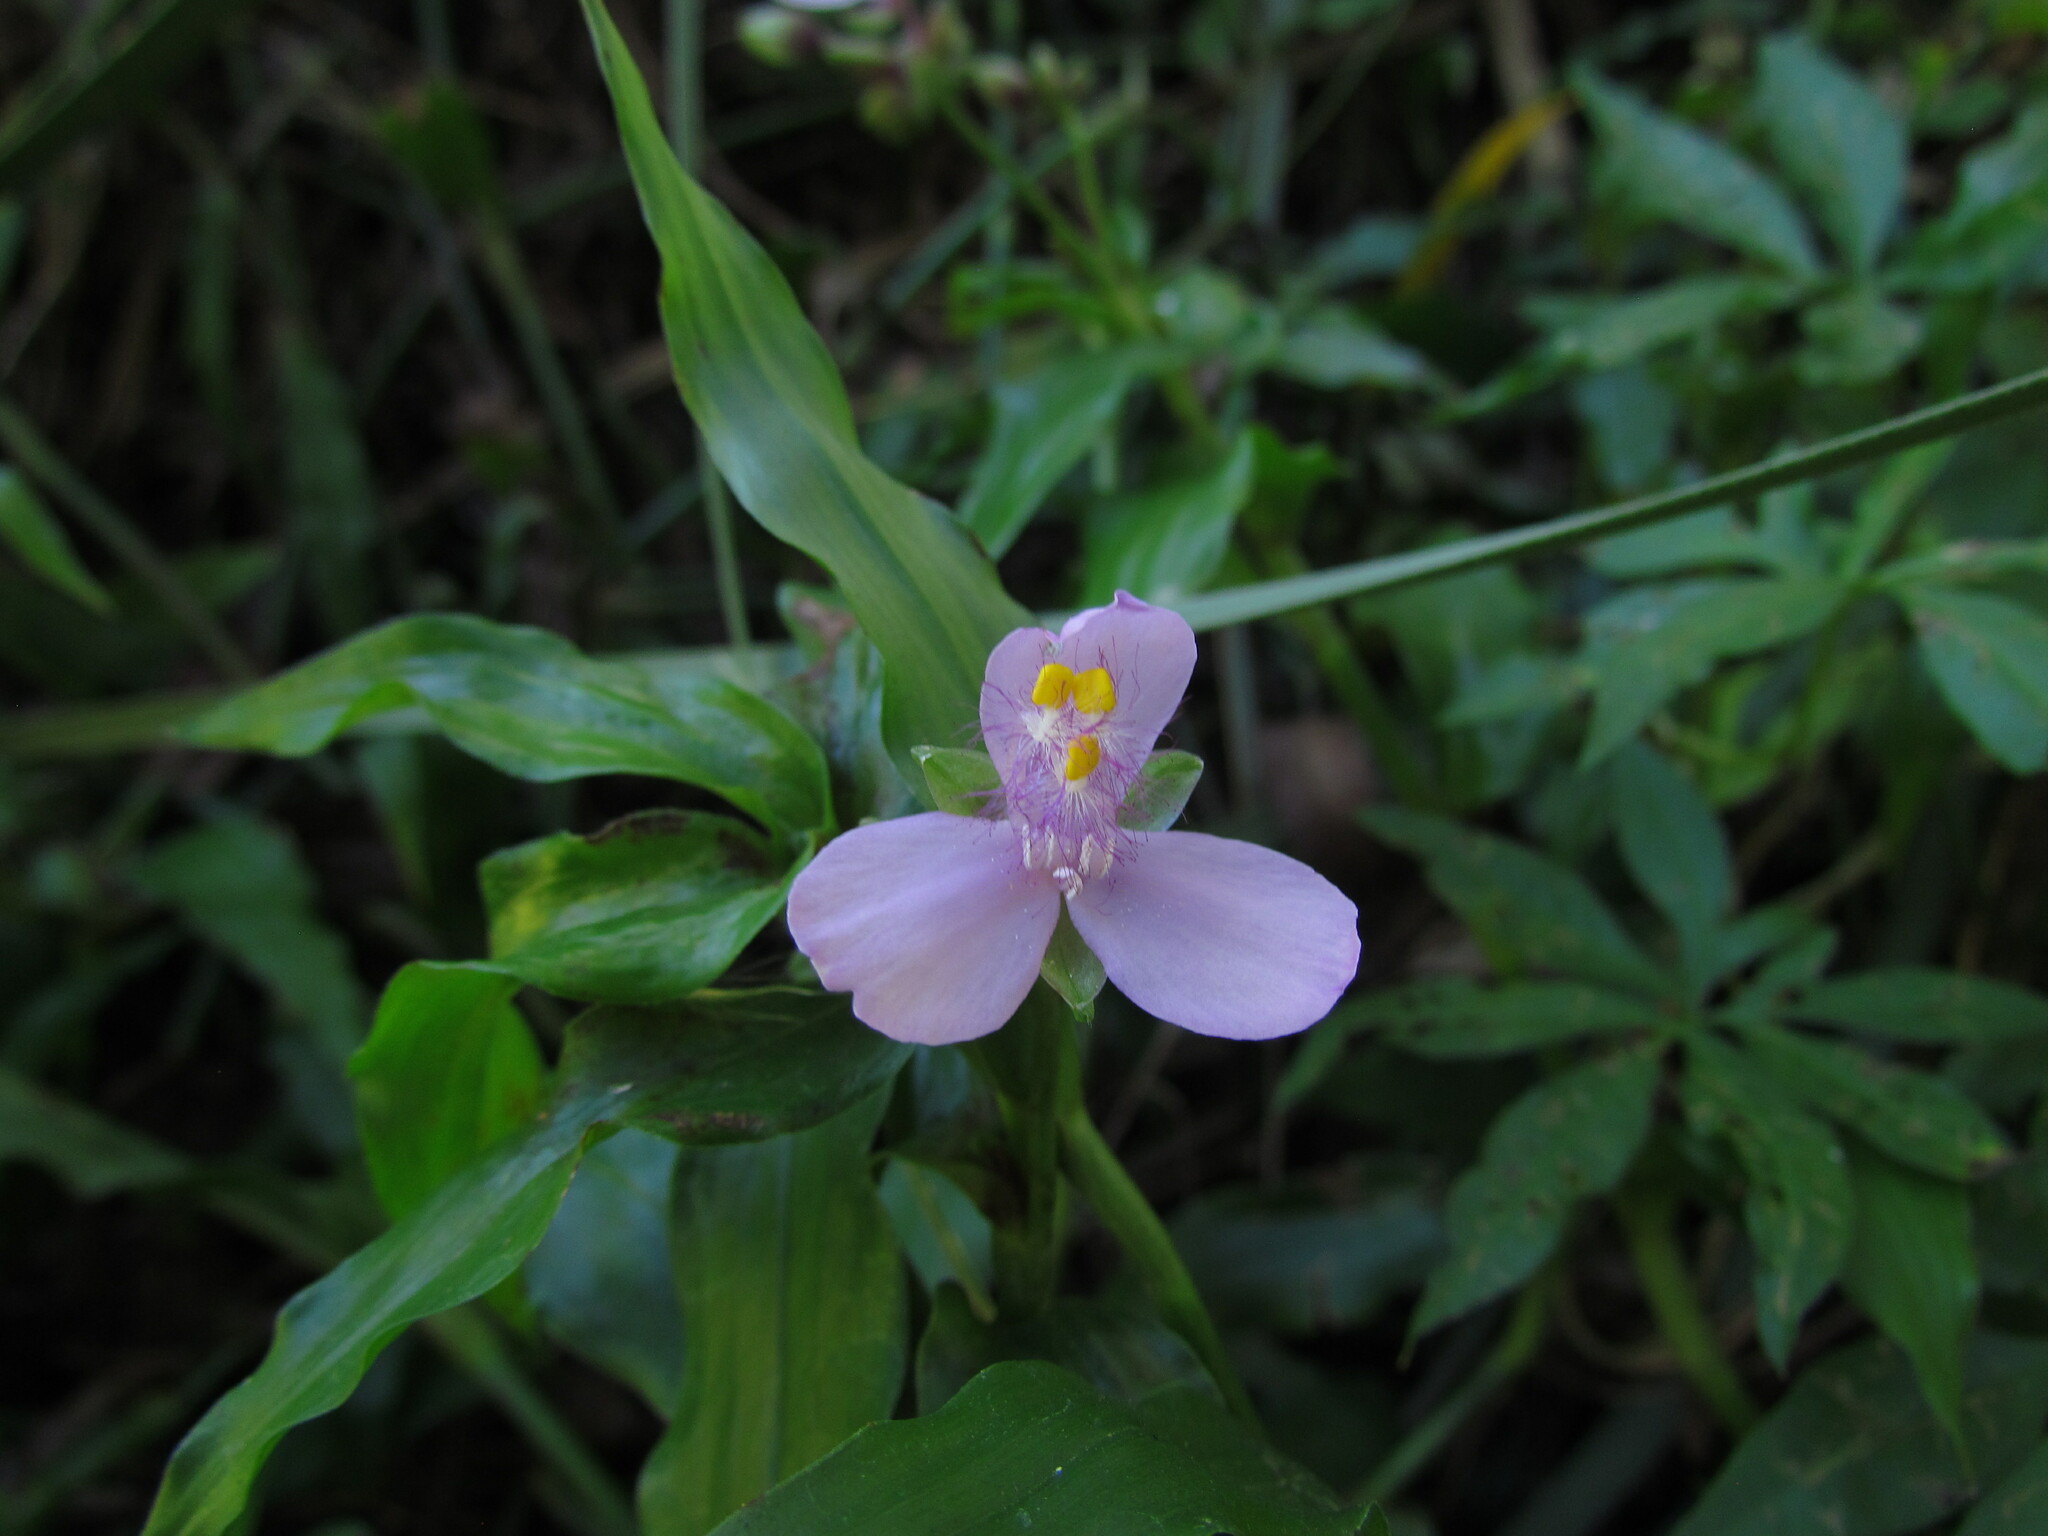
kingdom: Plantae
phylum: Tracheophyta
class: Liliopsida
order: Commelinales
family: Commelinaceae
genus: Callisia
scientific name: Callisia diuretica
